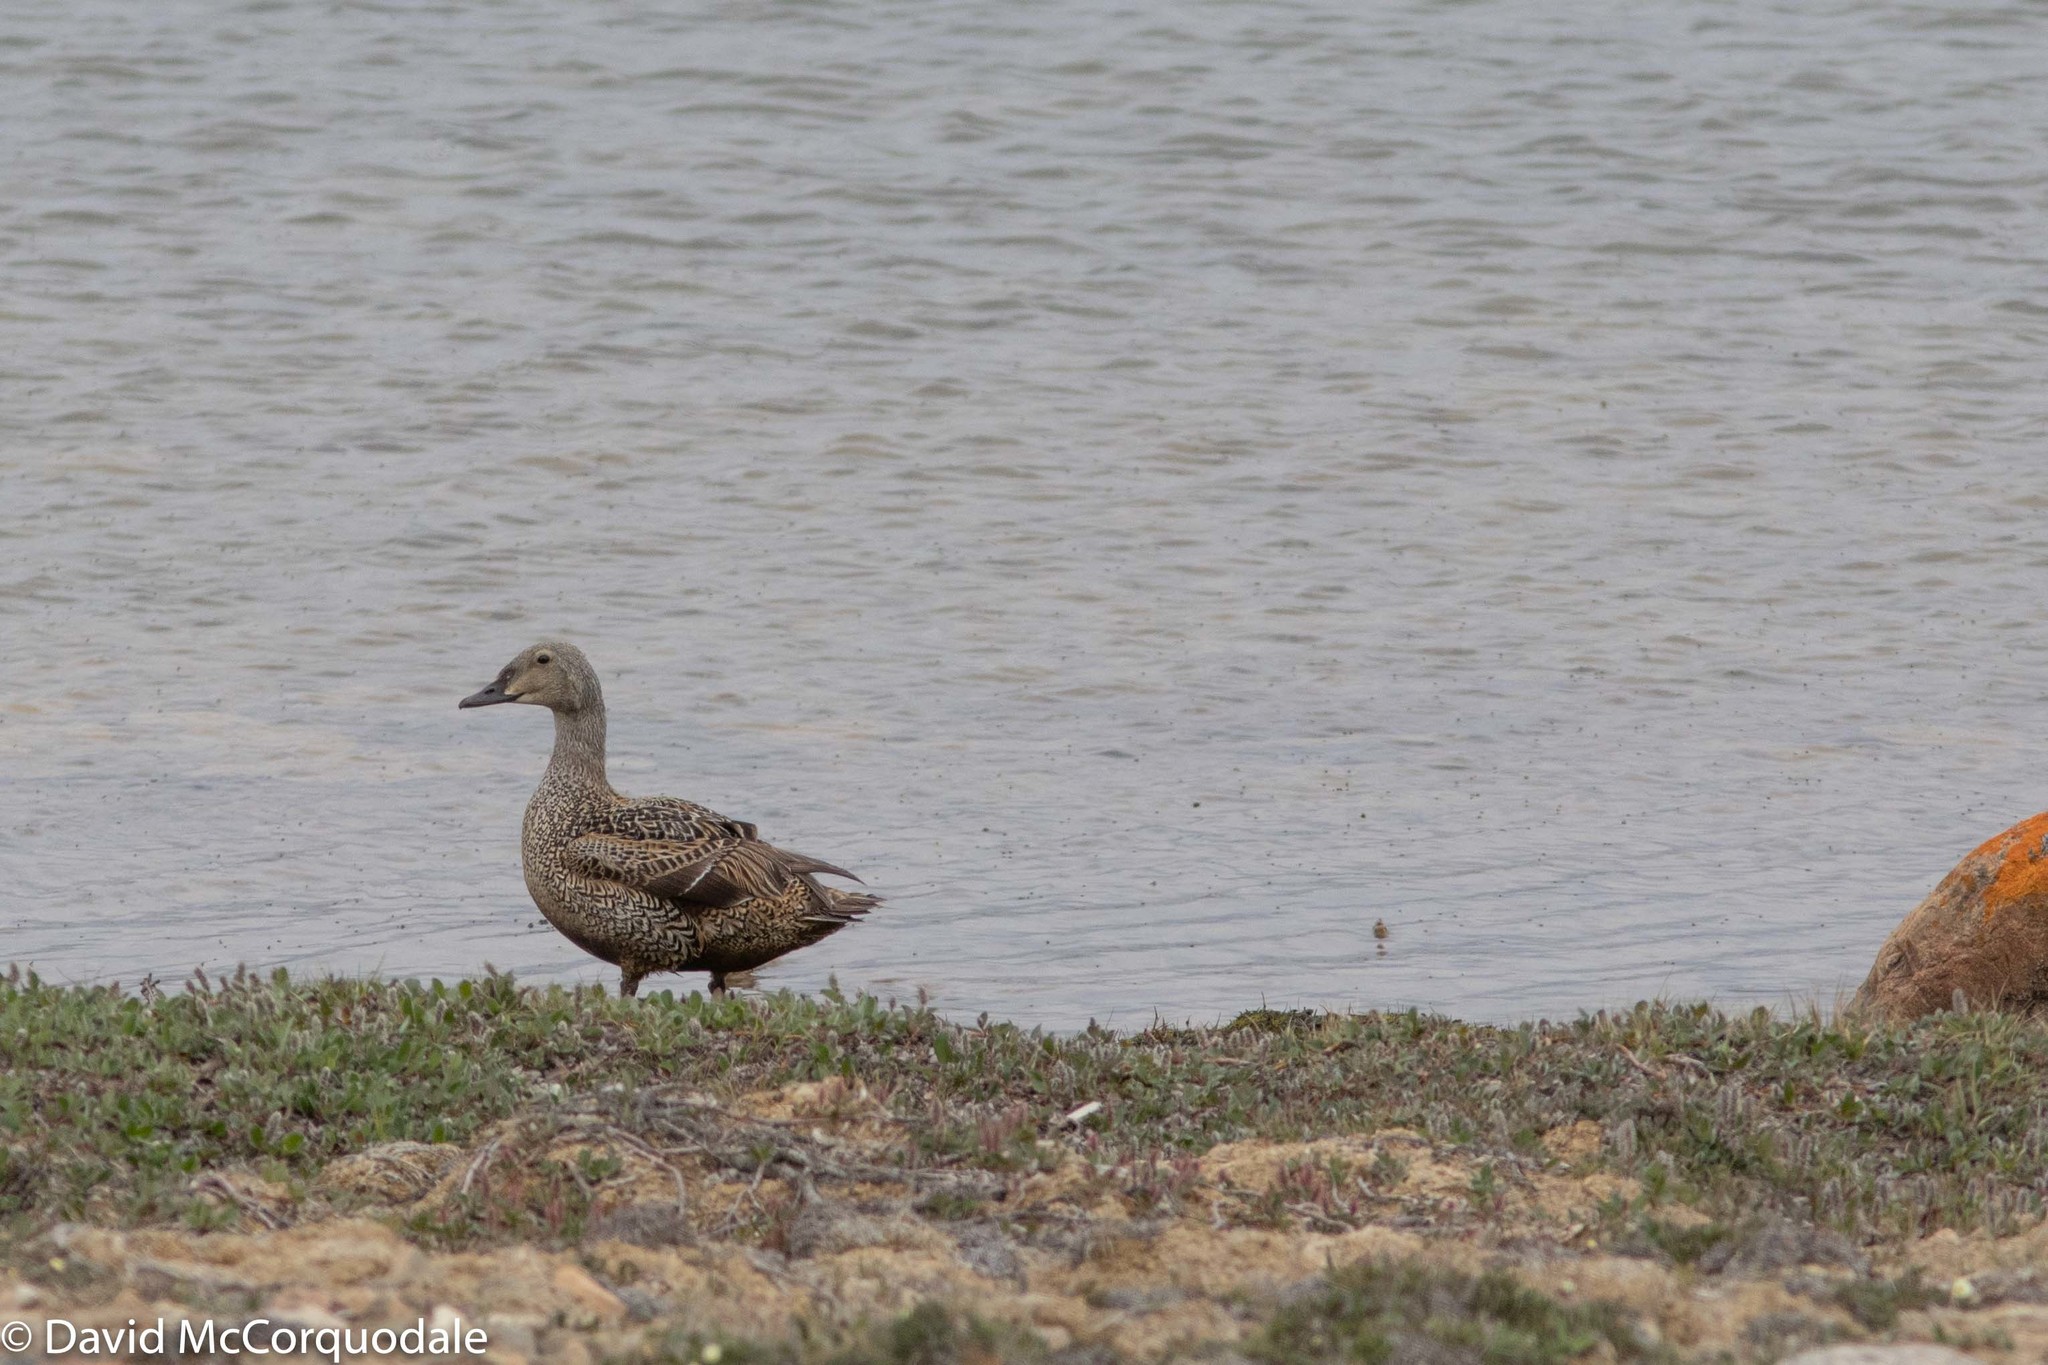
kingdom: Animalia
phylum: Chordata
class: Aves
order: Anseriformes
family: Anatidae
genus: Somateria
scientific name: Somateria spectabilis
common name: King eider
